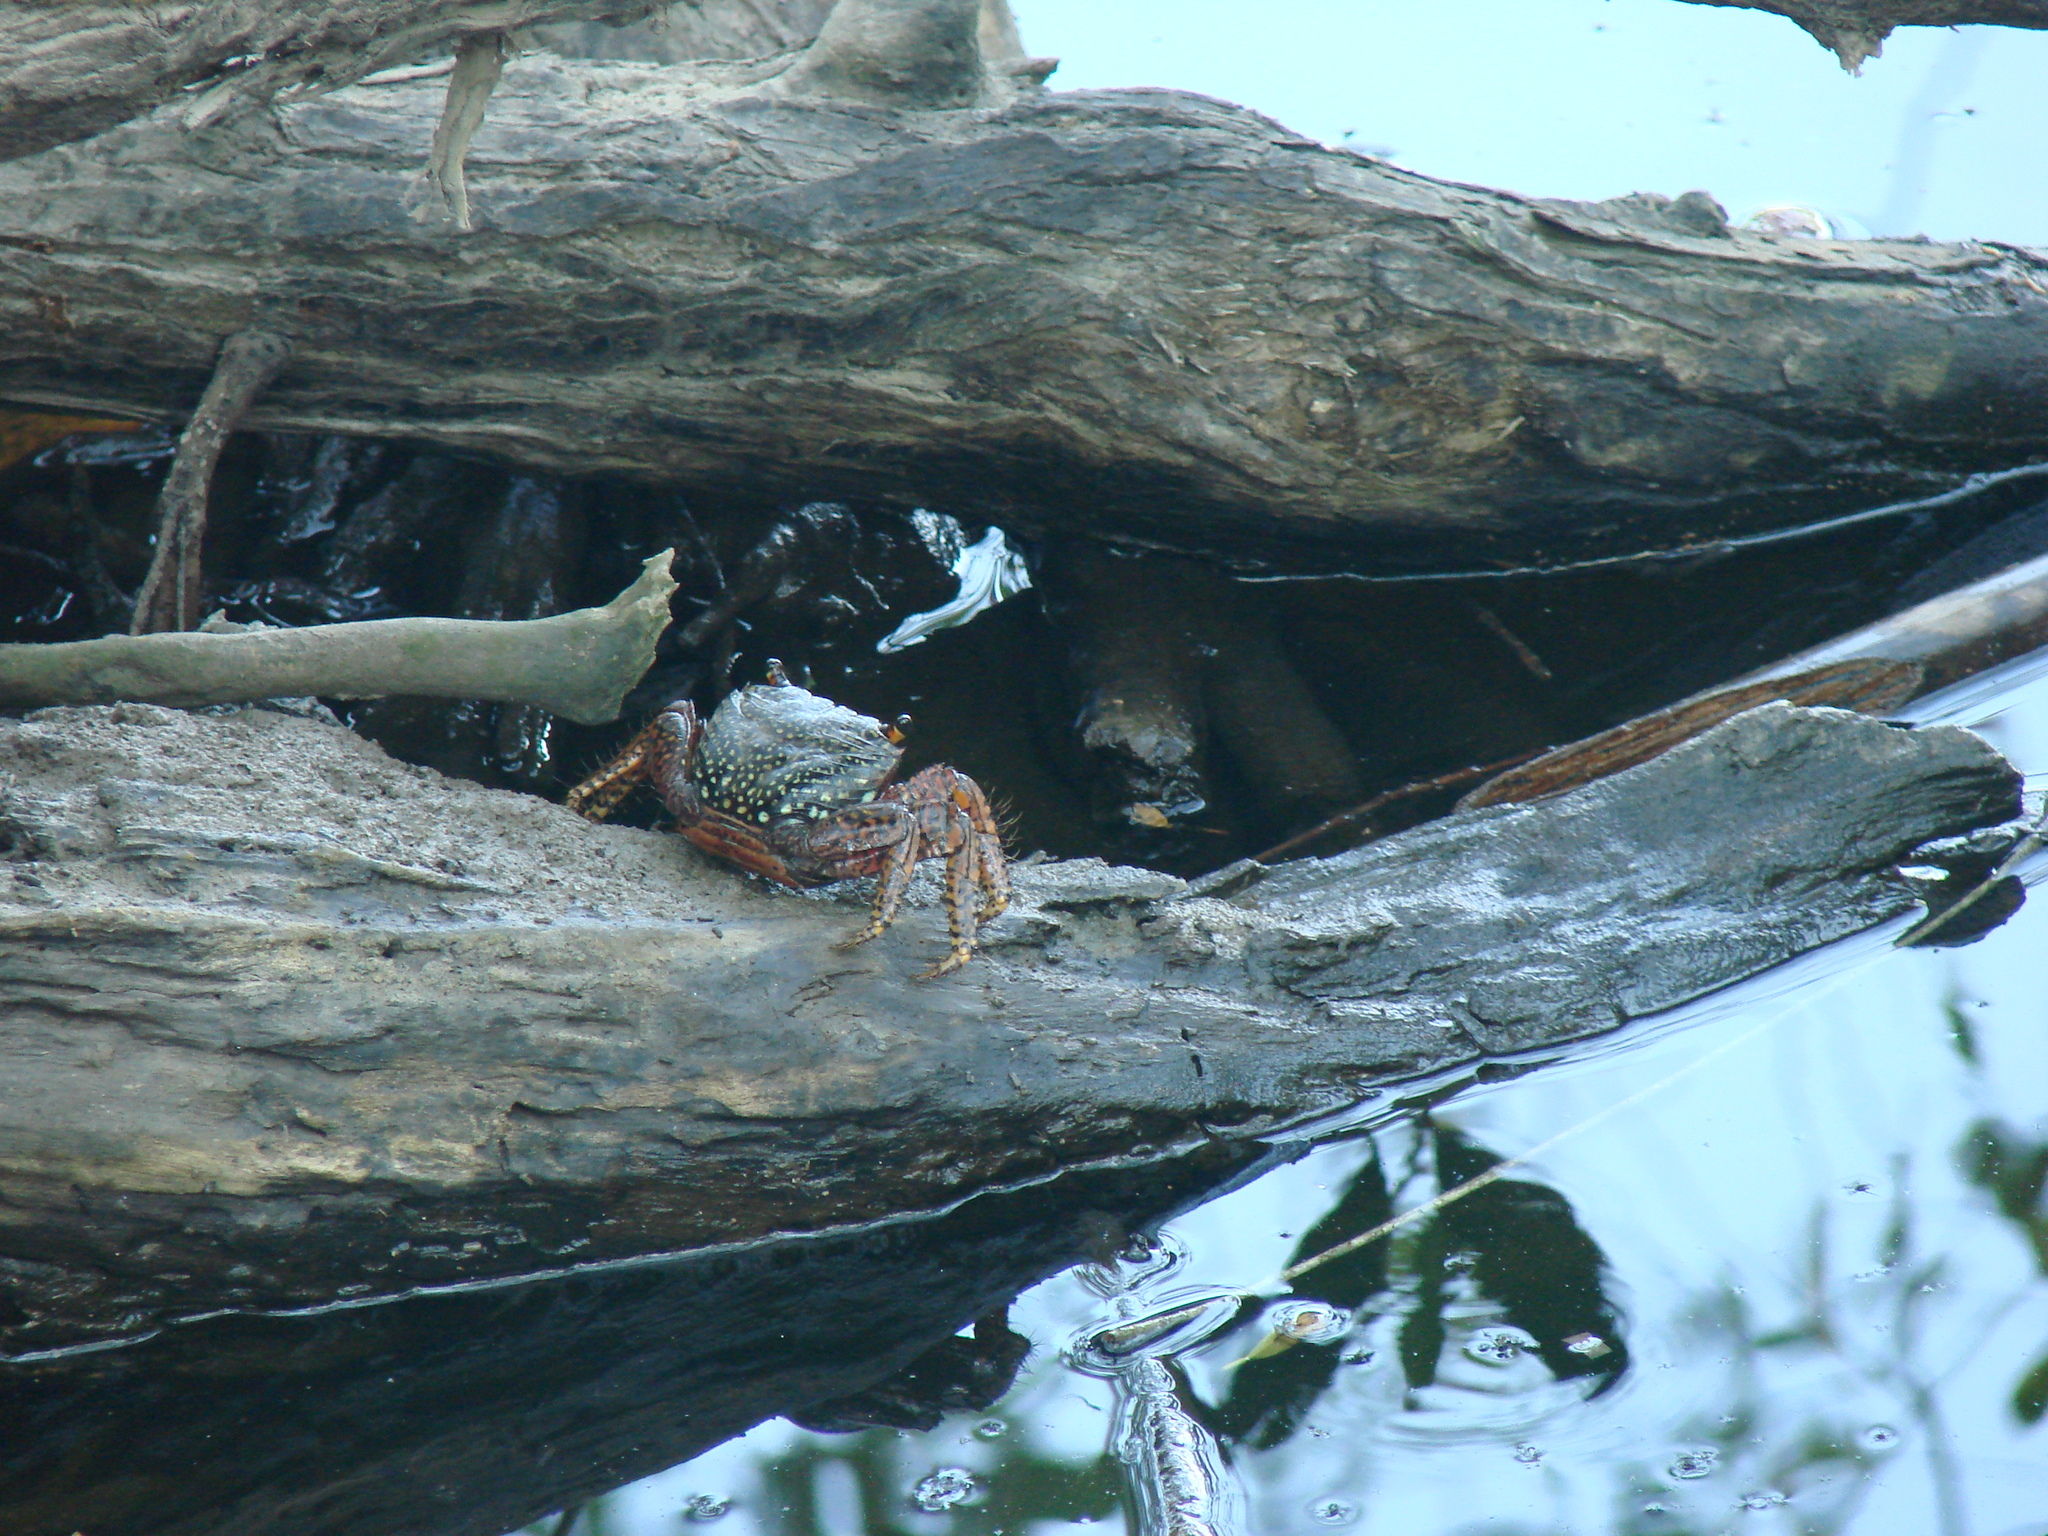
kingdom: Animalia
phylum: Arthropoda
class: Malacostraca
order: Decapoda
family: Grapsidae
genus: Goniopsis
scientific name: Goniopsis pulchra
